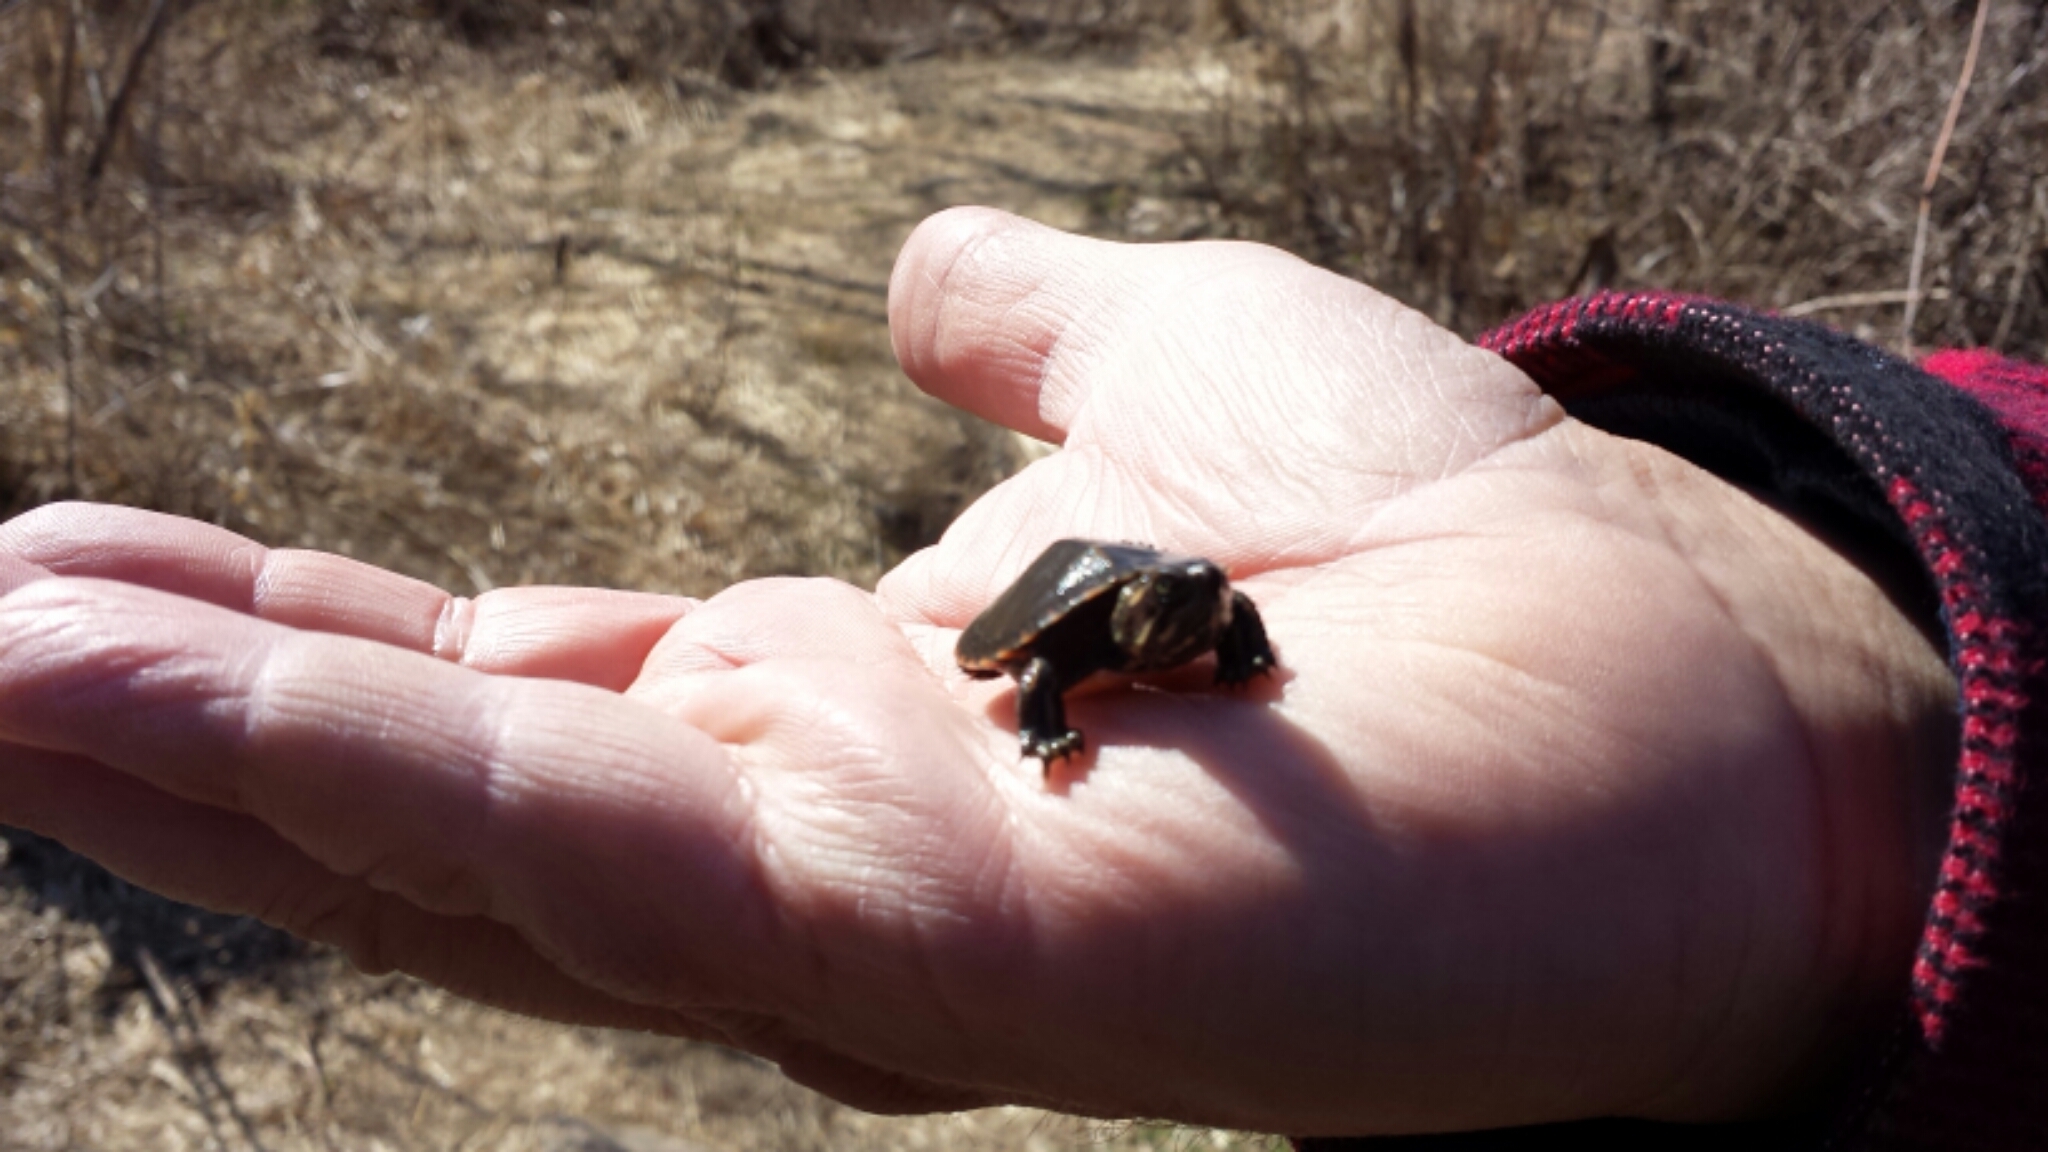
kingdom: Animalia
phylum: Chordata
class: Testudines
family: Emydidae
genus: Chrysemys
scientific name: Chrysemys picta
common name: Painted turtle
